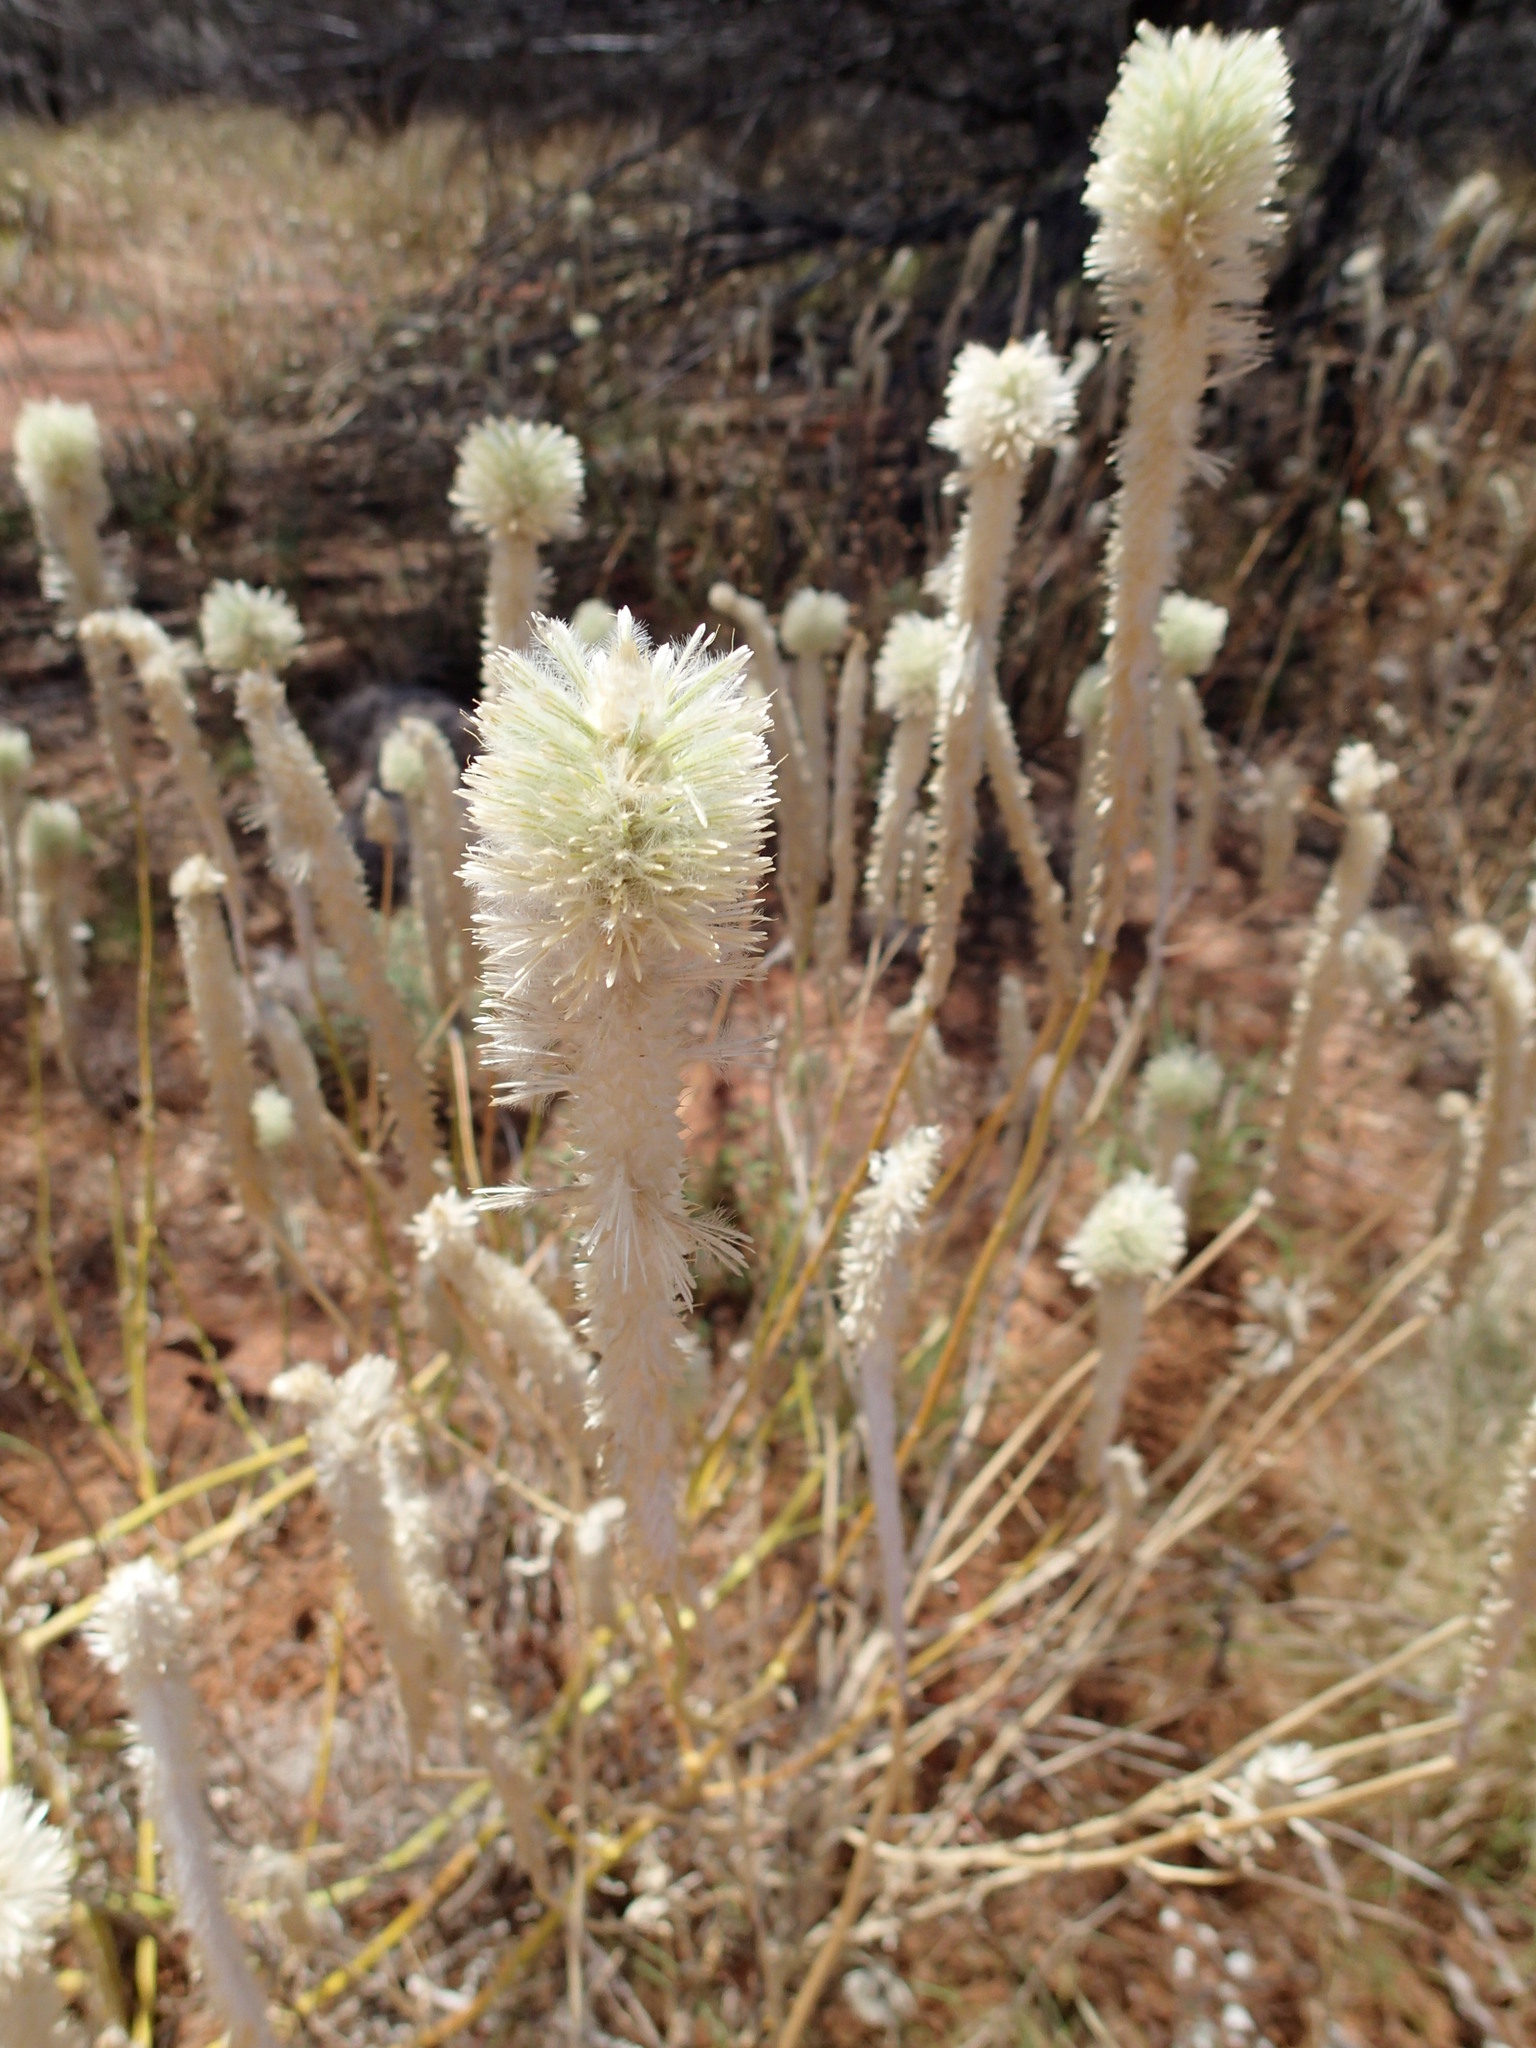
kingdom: Plantae
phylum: Tracheophyta
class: Magnoliopsida
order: Caryophyllales
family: Amaranthaceae
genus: Ptilotus
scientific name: Ptilotus xerophilus
